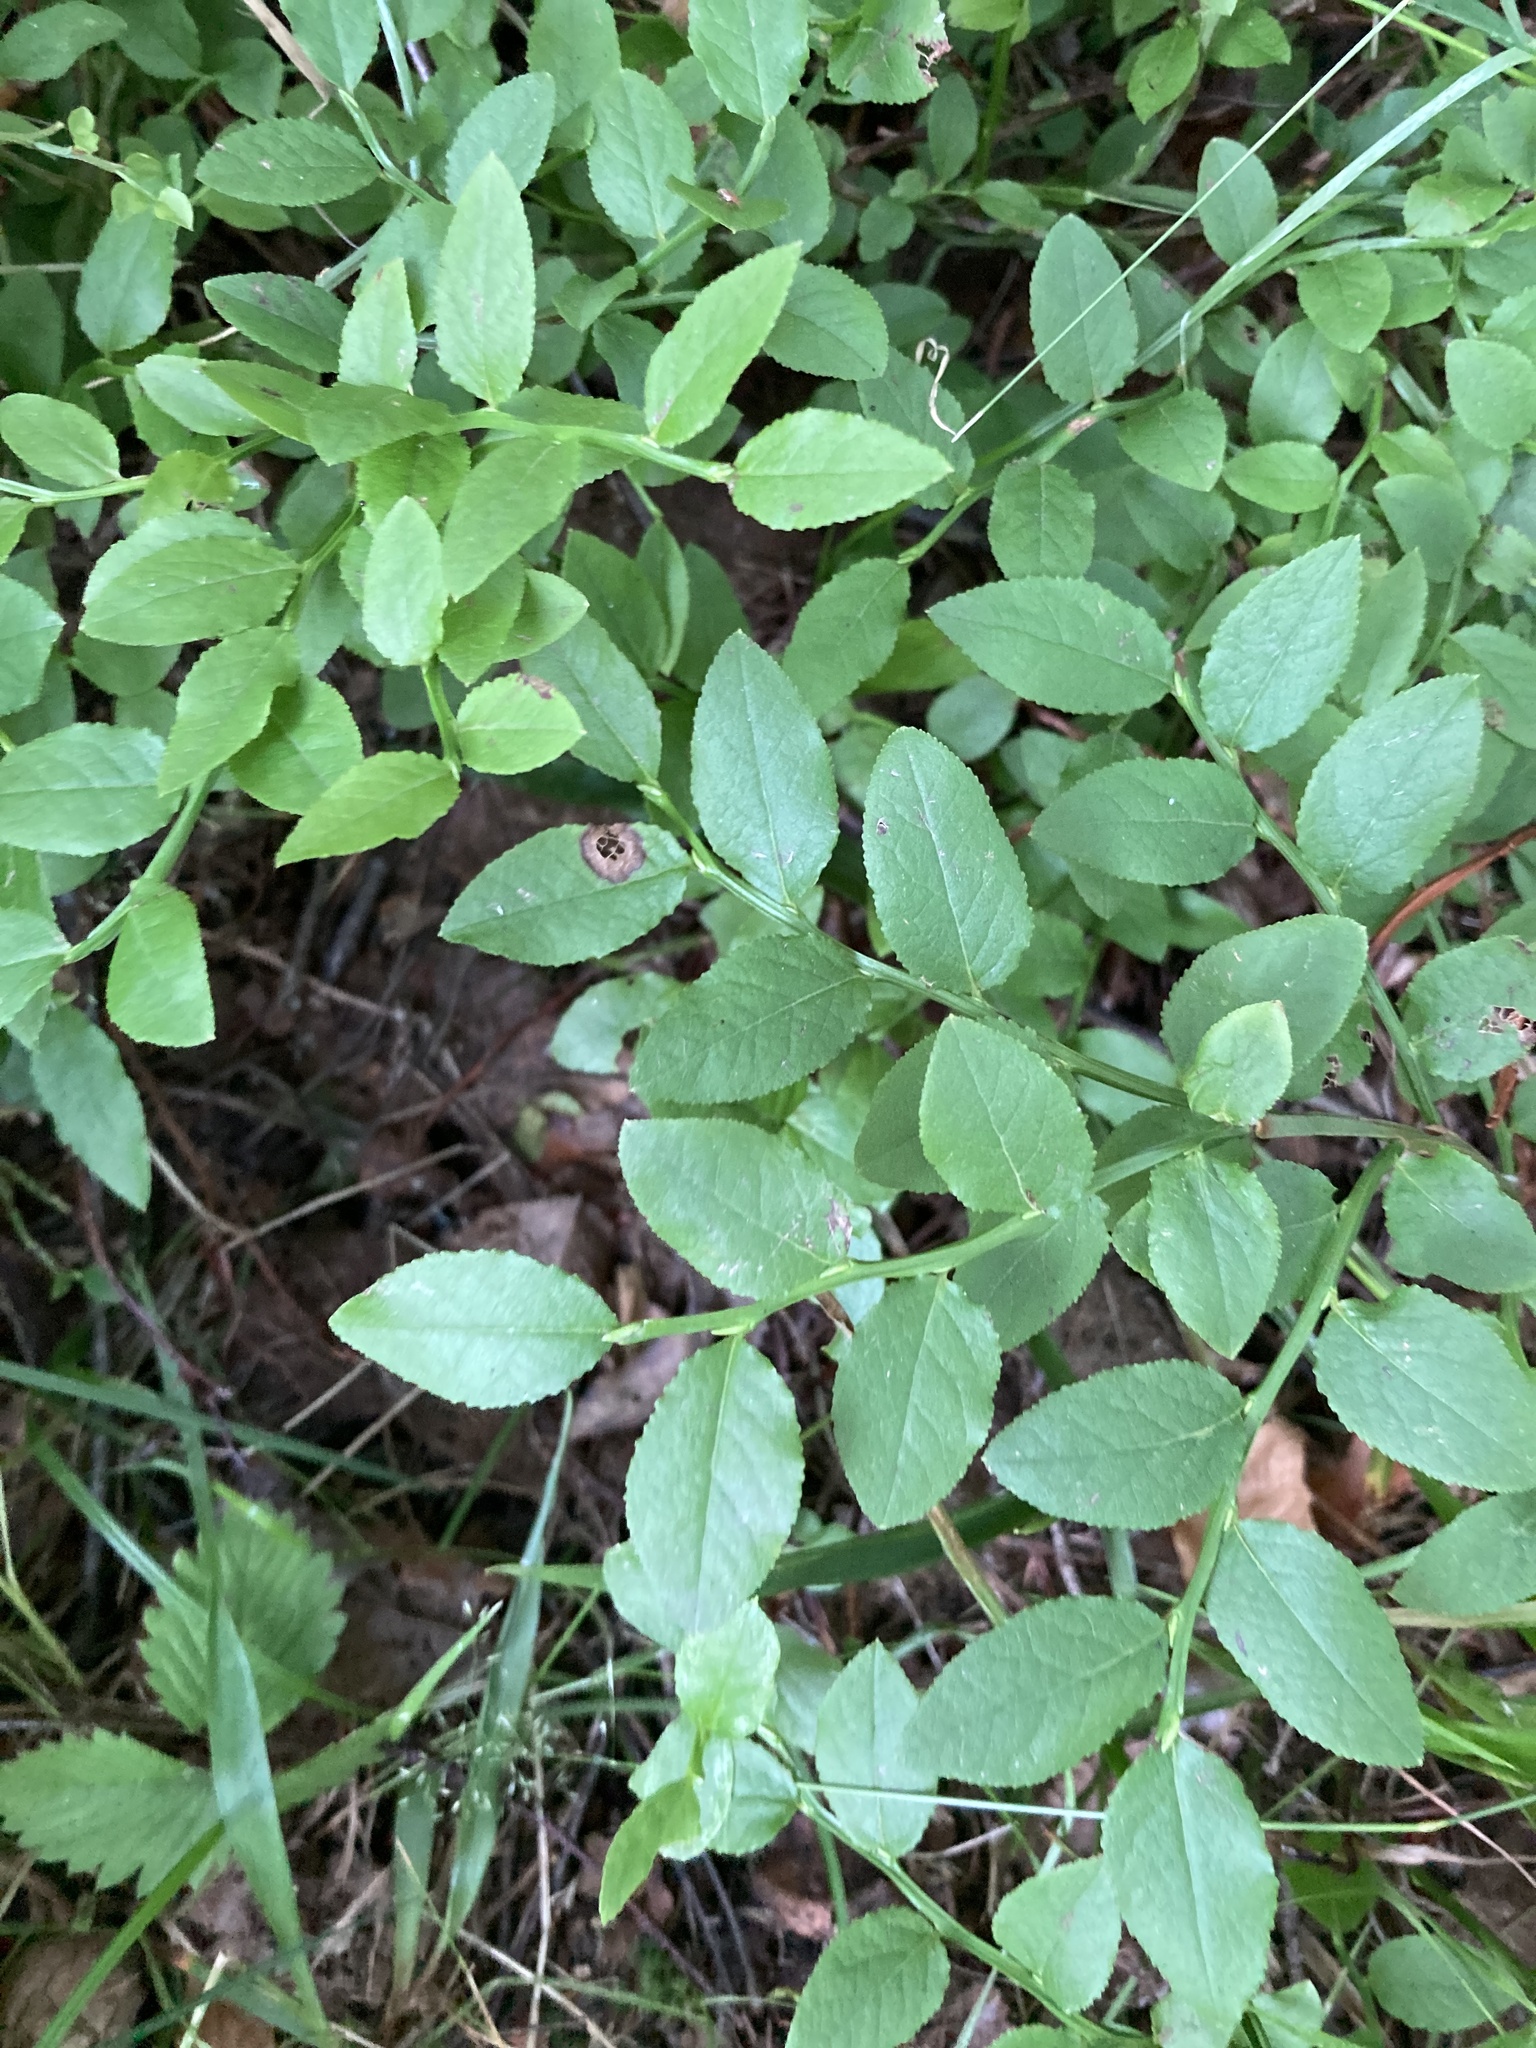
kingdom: Plantae
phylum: Tracheophyta
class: Magnoliopsida
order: Ericales
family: Ericaceae
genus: Vaccinium
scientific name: Vaccinium myrtillus
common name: Bilberry
